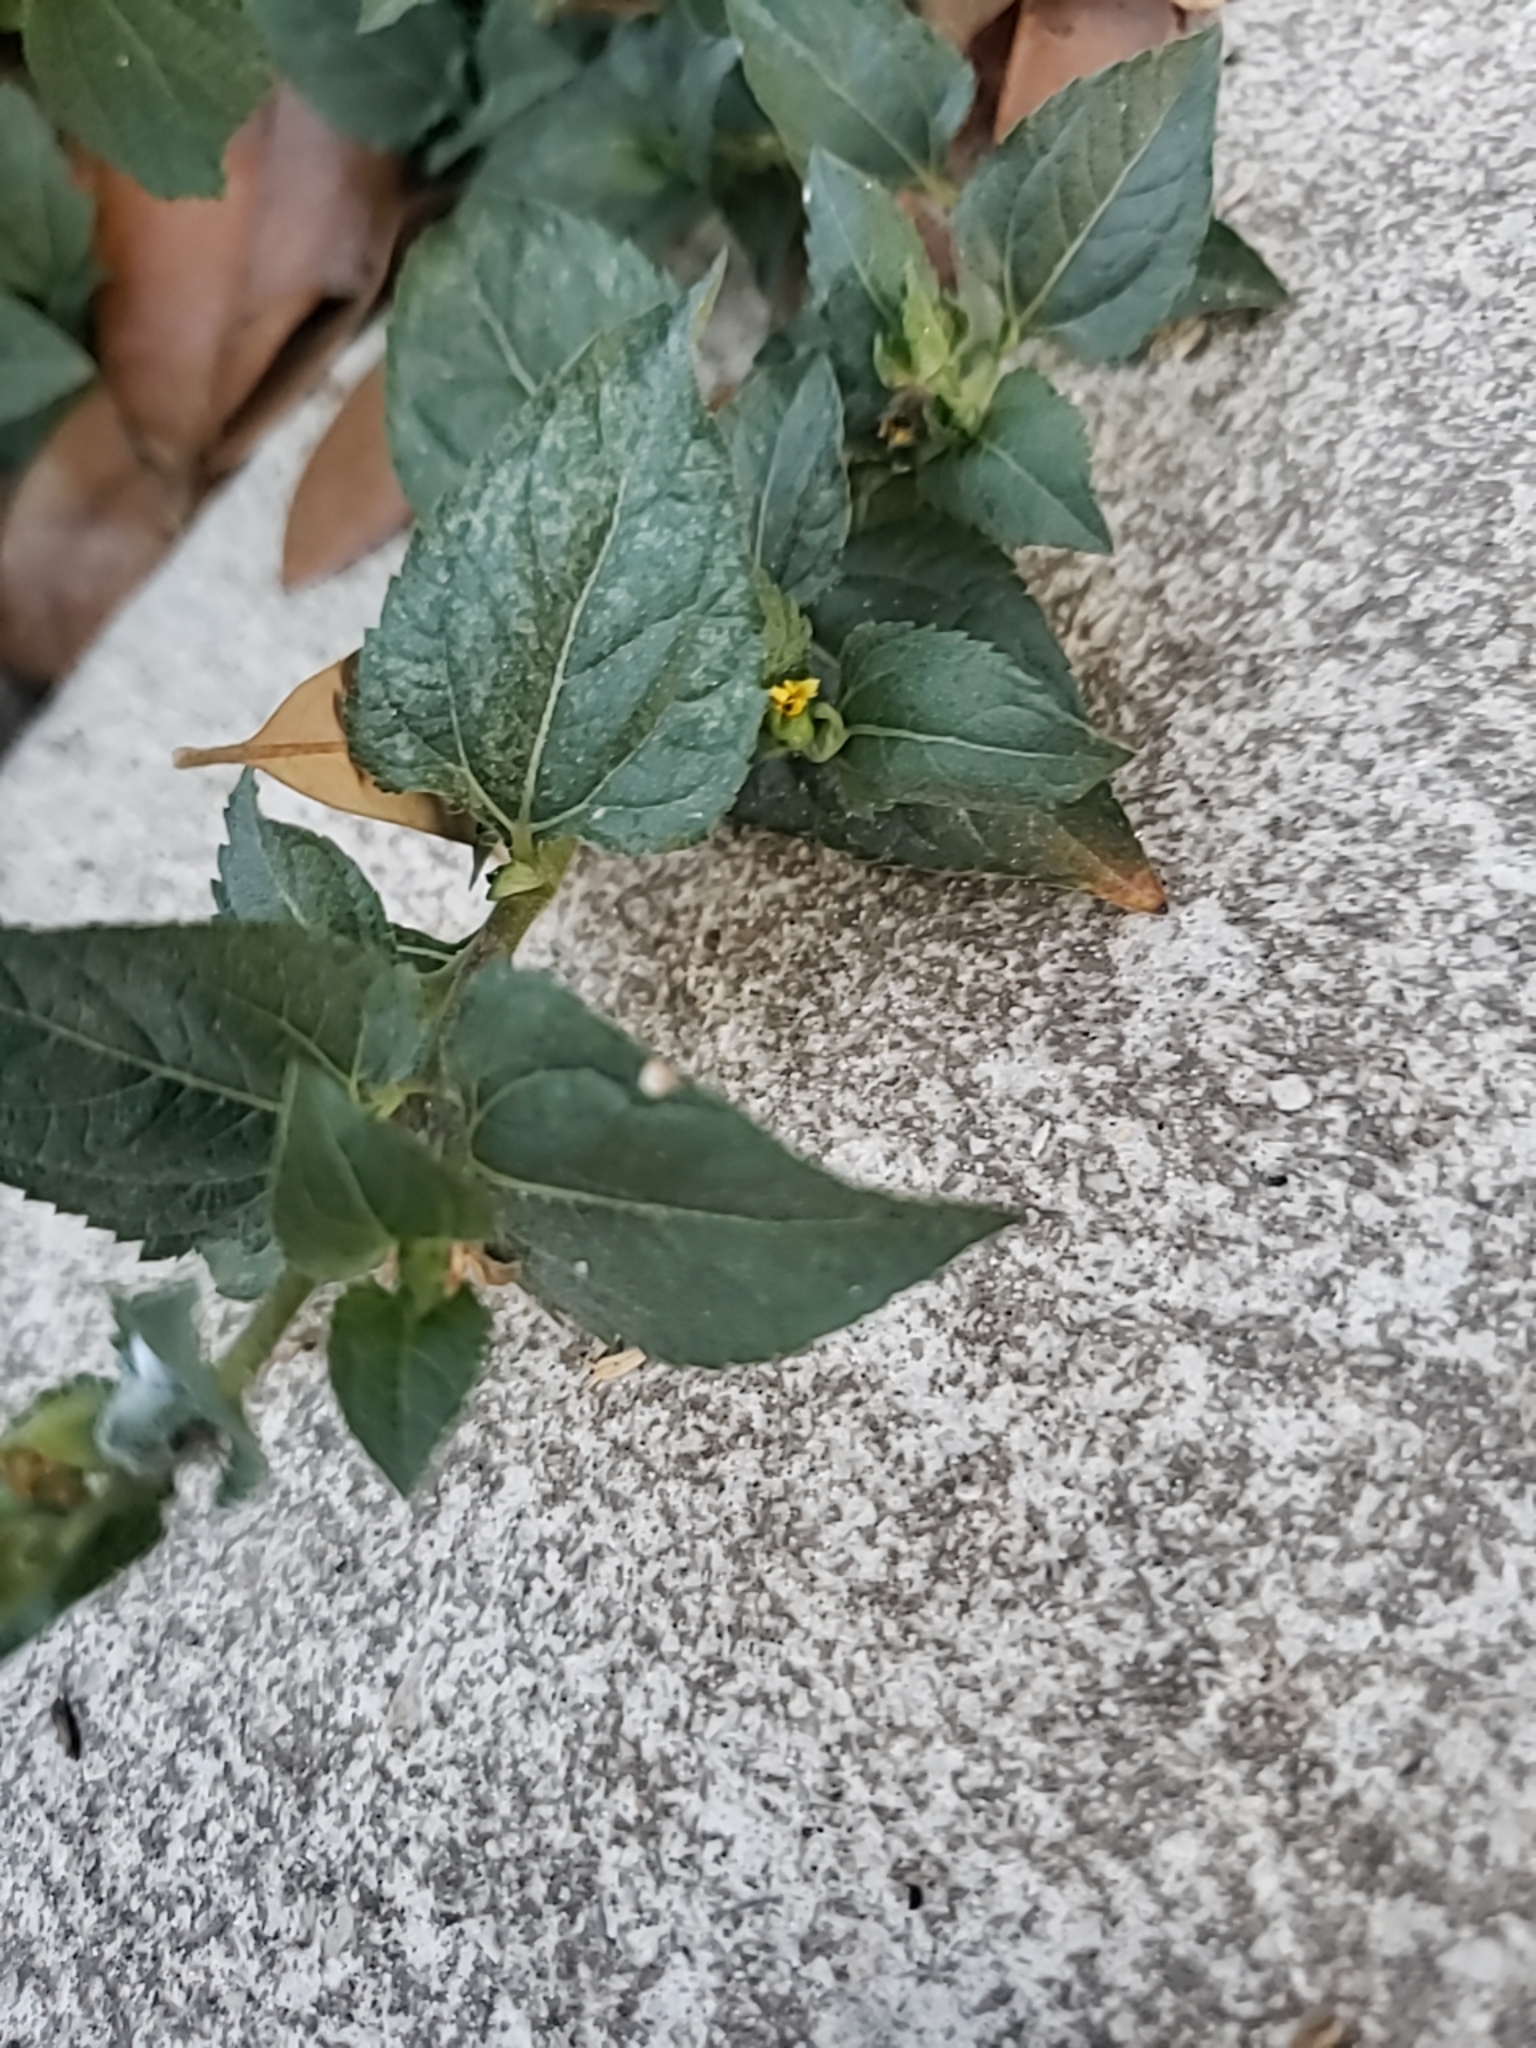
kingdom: Plantae
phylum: Tracheophyta
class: Magnoliopsida
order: Asterales
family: Asteraceae
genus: Calyptocarpus
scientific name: Calyptocarpus vialis
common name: Straggler daisy
